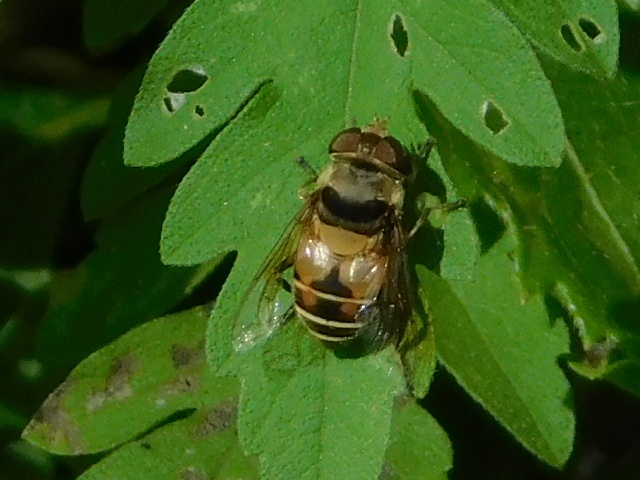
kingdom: Animalia
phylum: Arthropoda
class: Insecta
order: Diptera
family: Syrphidae
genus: Palpada
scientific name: Palpada pusilla
